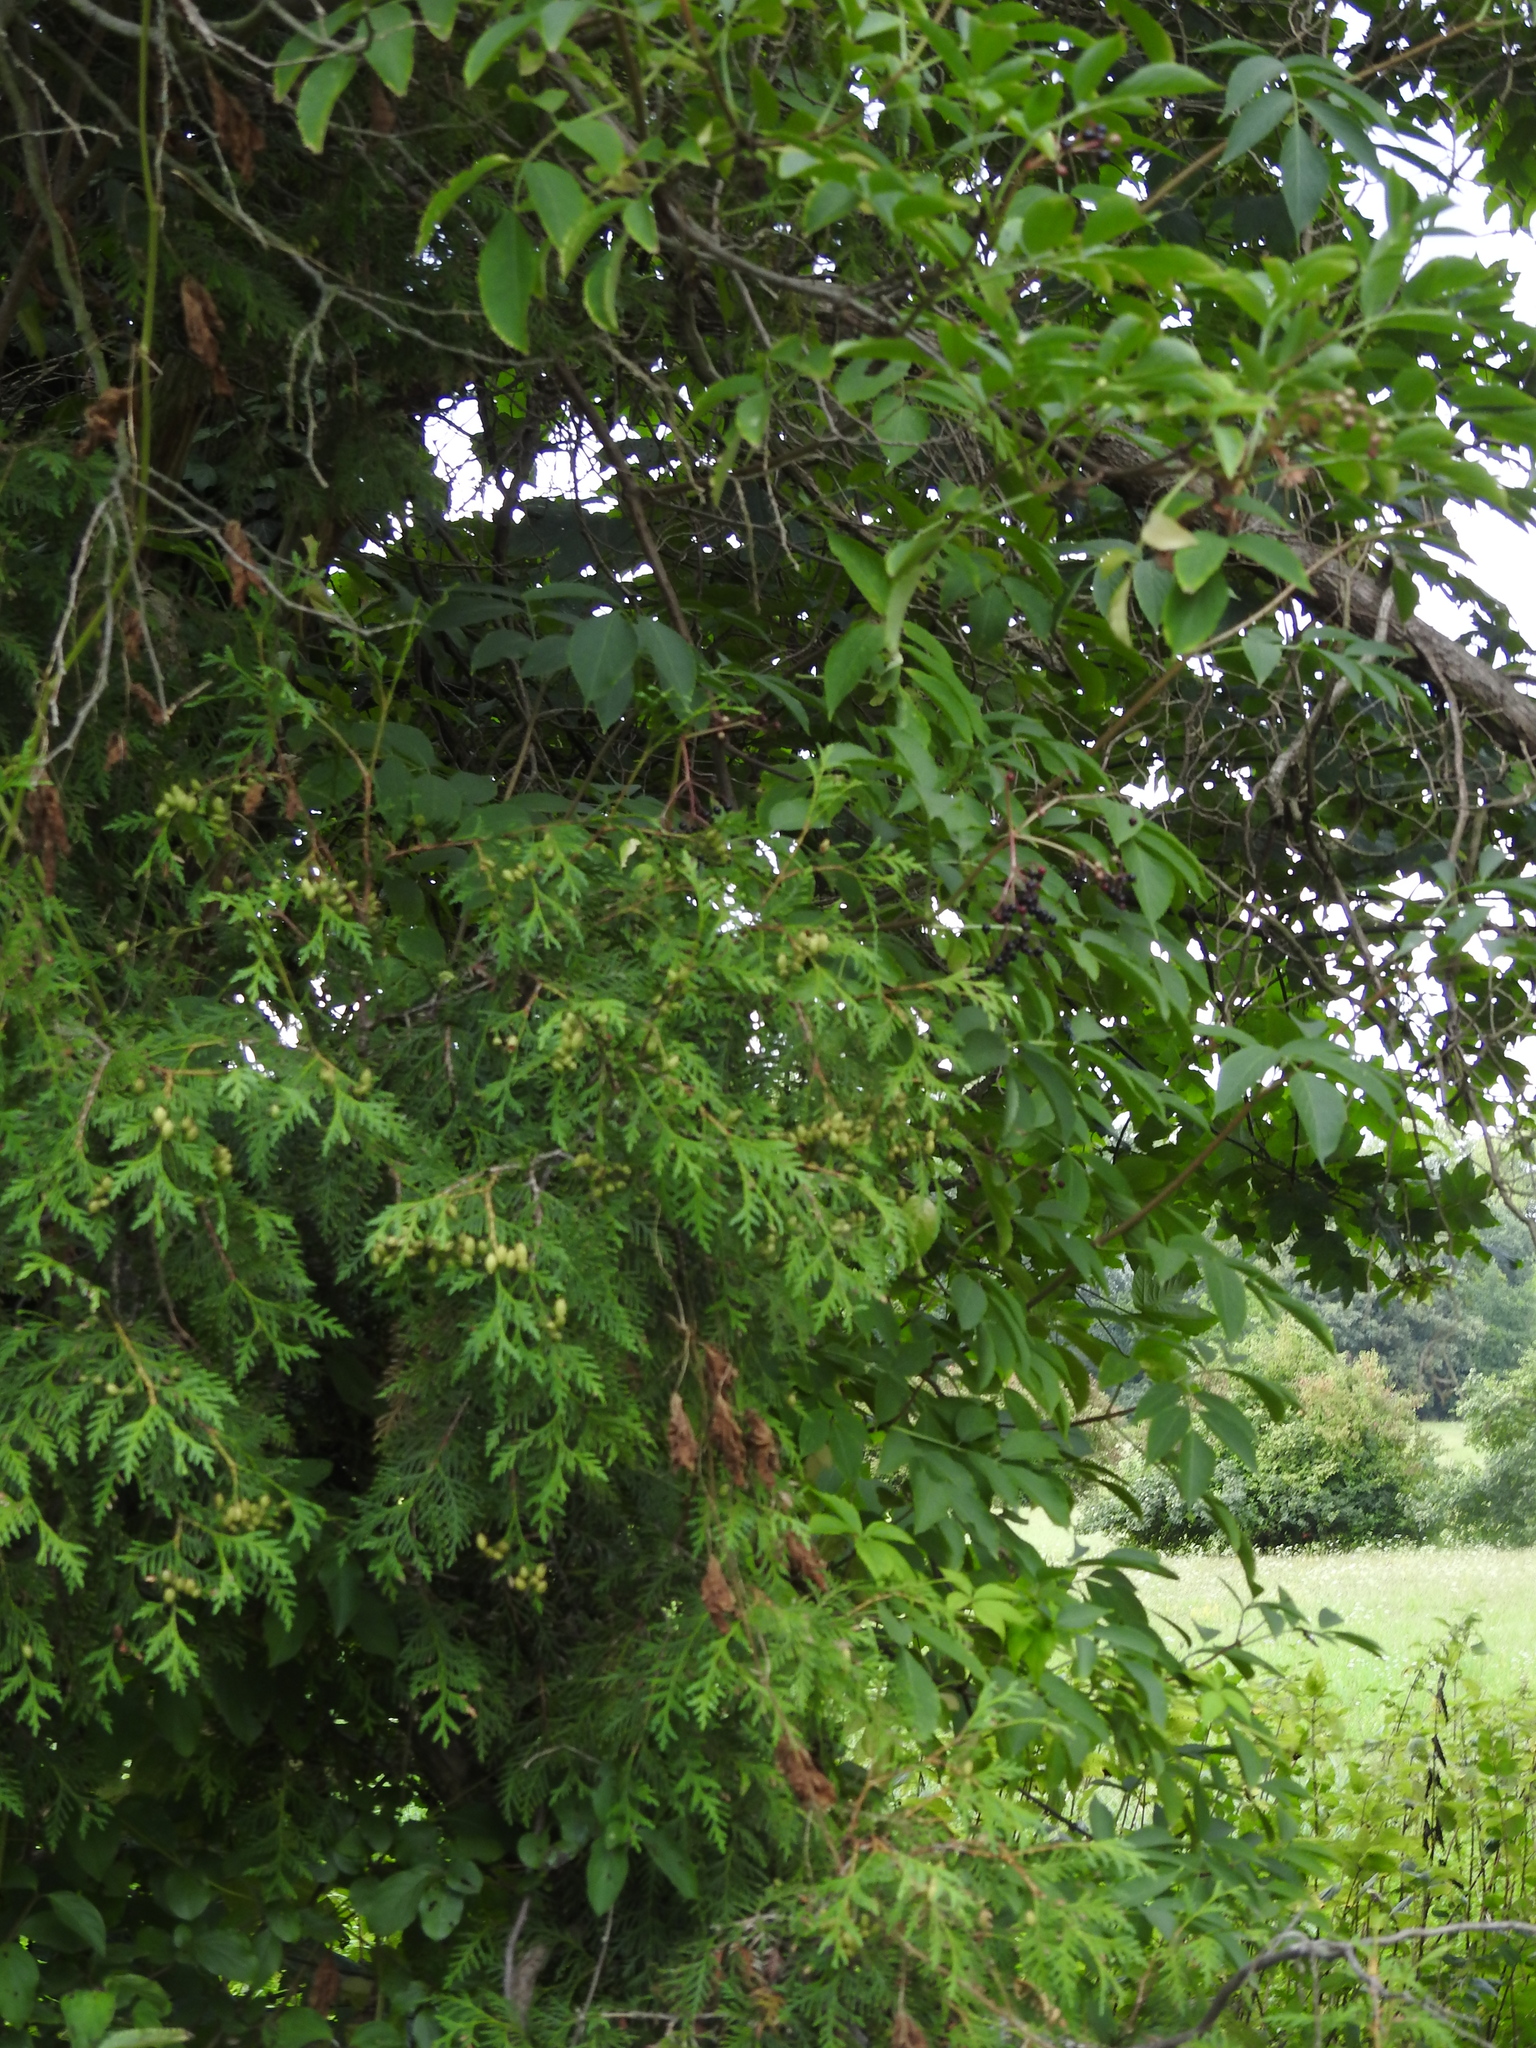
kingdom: Plantae
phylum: Tracheophyta
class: Pinopsida
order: Pinales
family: Cupressaceae
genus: Thuja
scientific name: Thuja occidentalis
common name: Northern white-cedar
